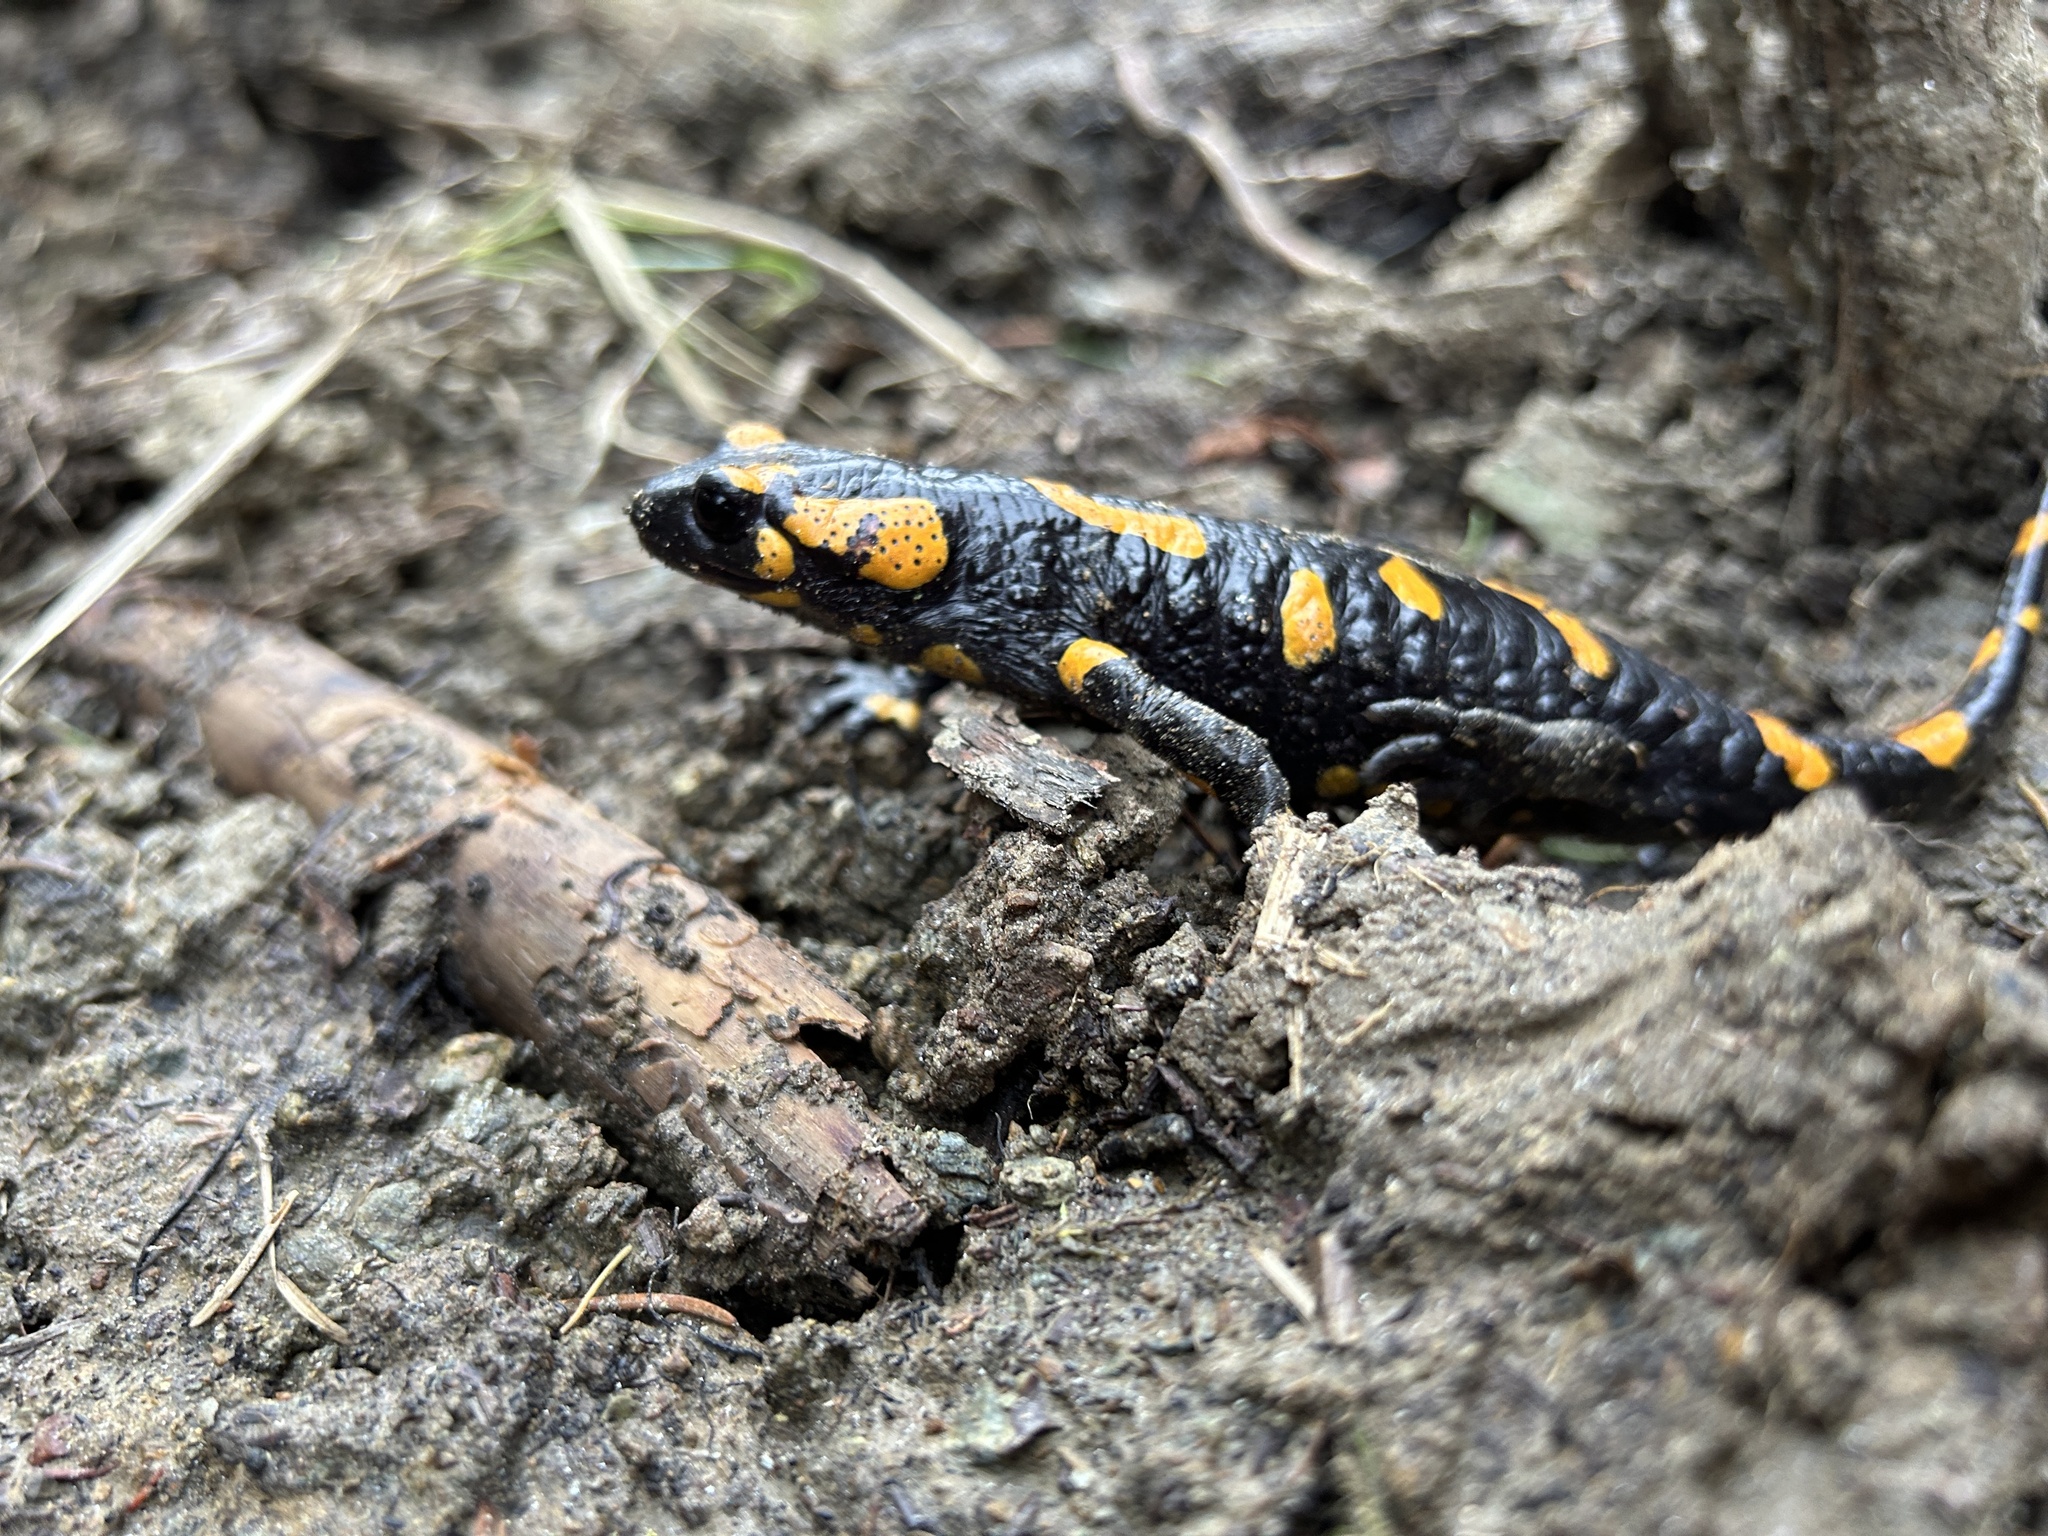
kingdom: Animalia
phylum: Chordata
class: Amphibia
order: Caudata
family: Salamandridae
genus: Salamandra
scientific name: Salamandra salamandra
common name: Fire salamander
